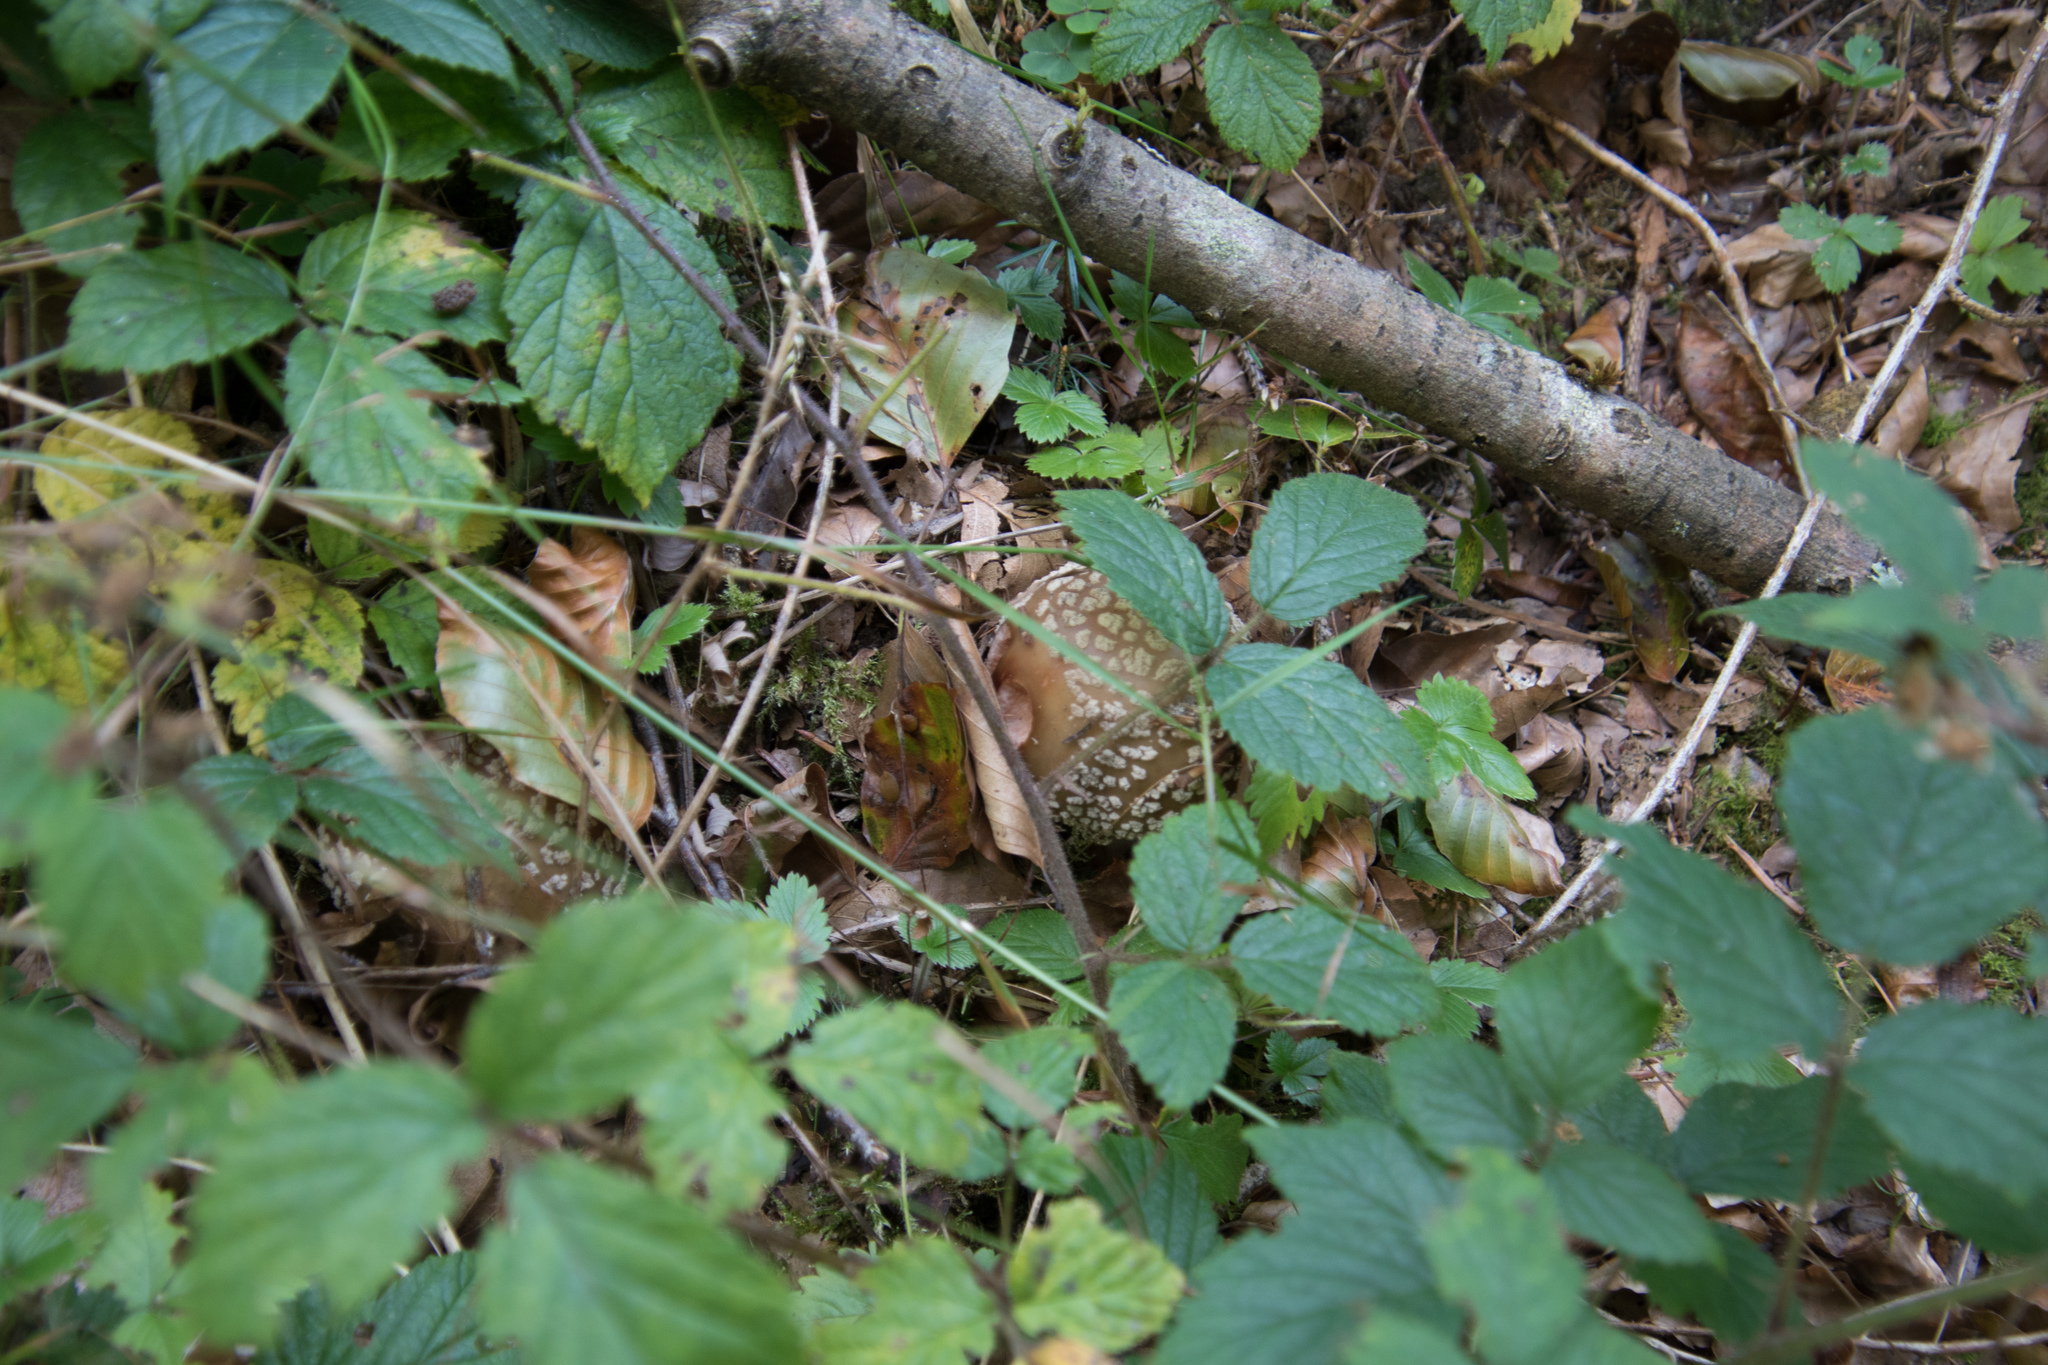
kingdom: Fungi
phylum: Basidiomycota
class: Agaricomycetes
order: Agaricales
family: Amanitaceae
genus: Amanita
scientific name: Amanita rubescens
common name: Blusher
